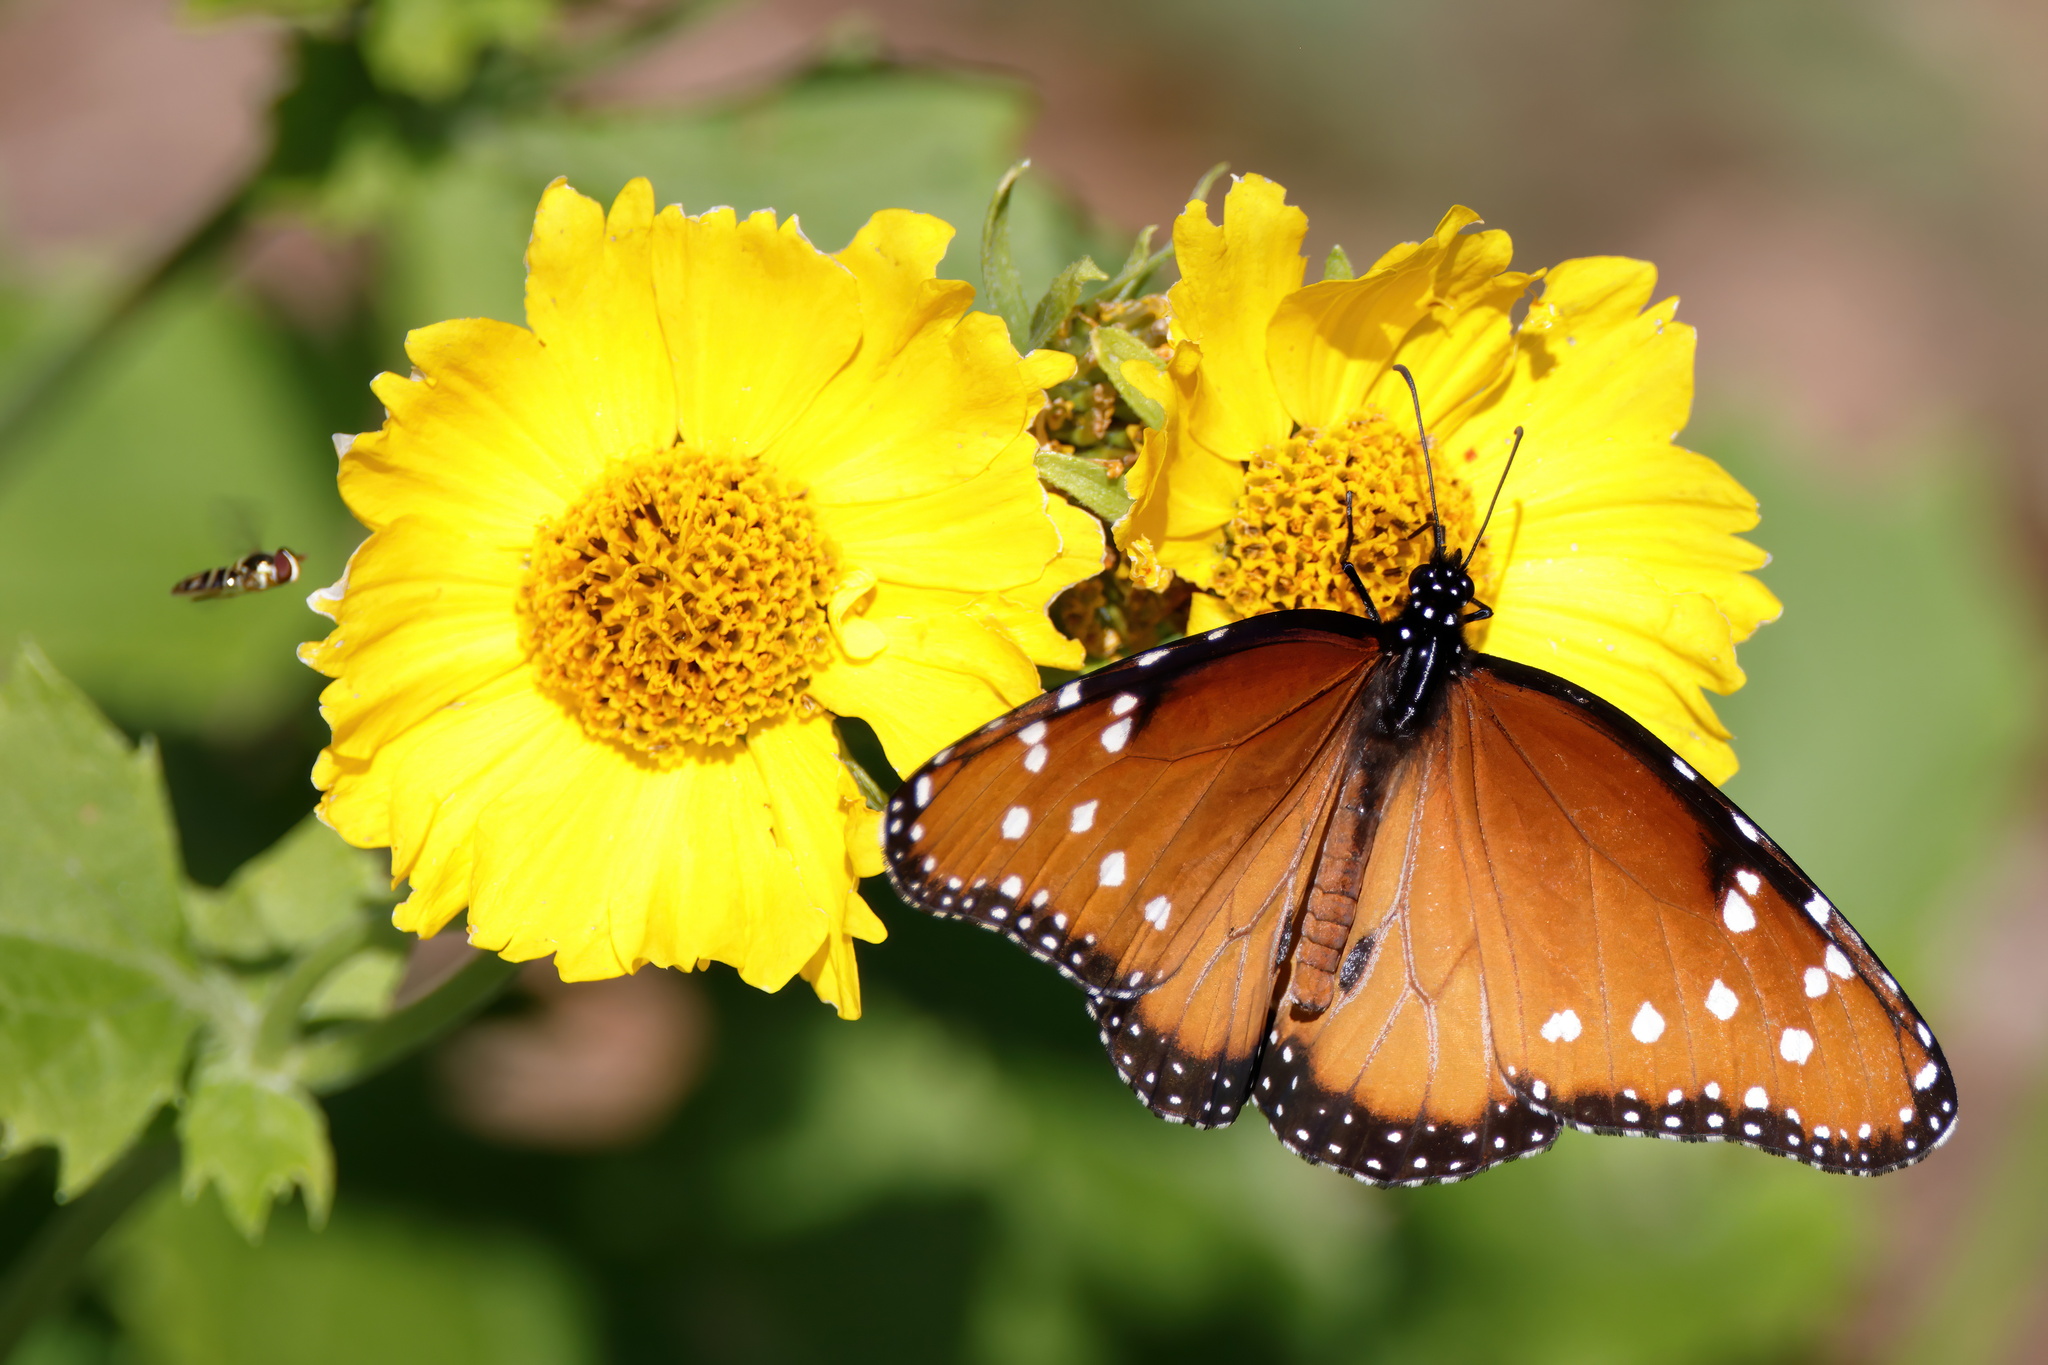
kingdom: Animalia
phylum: Arthropoda
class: Insecta
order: Lepidoptera
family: Nymphalidae
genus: Danaus
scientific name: Danaus gilippus
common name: Queen
